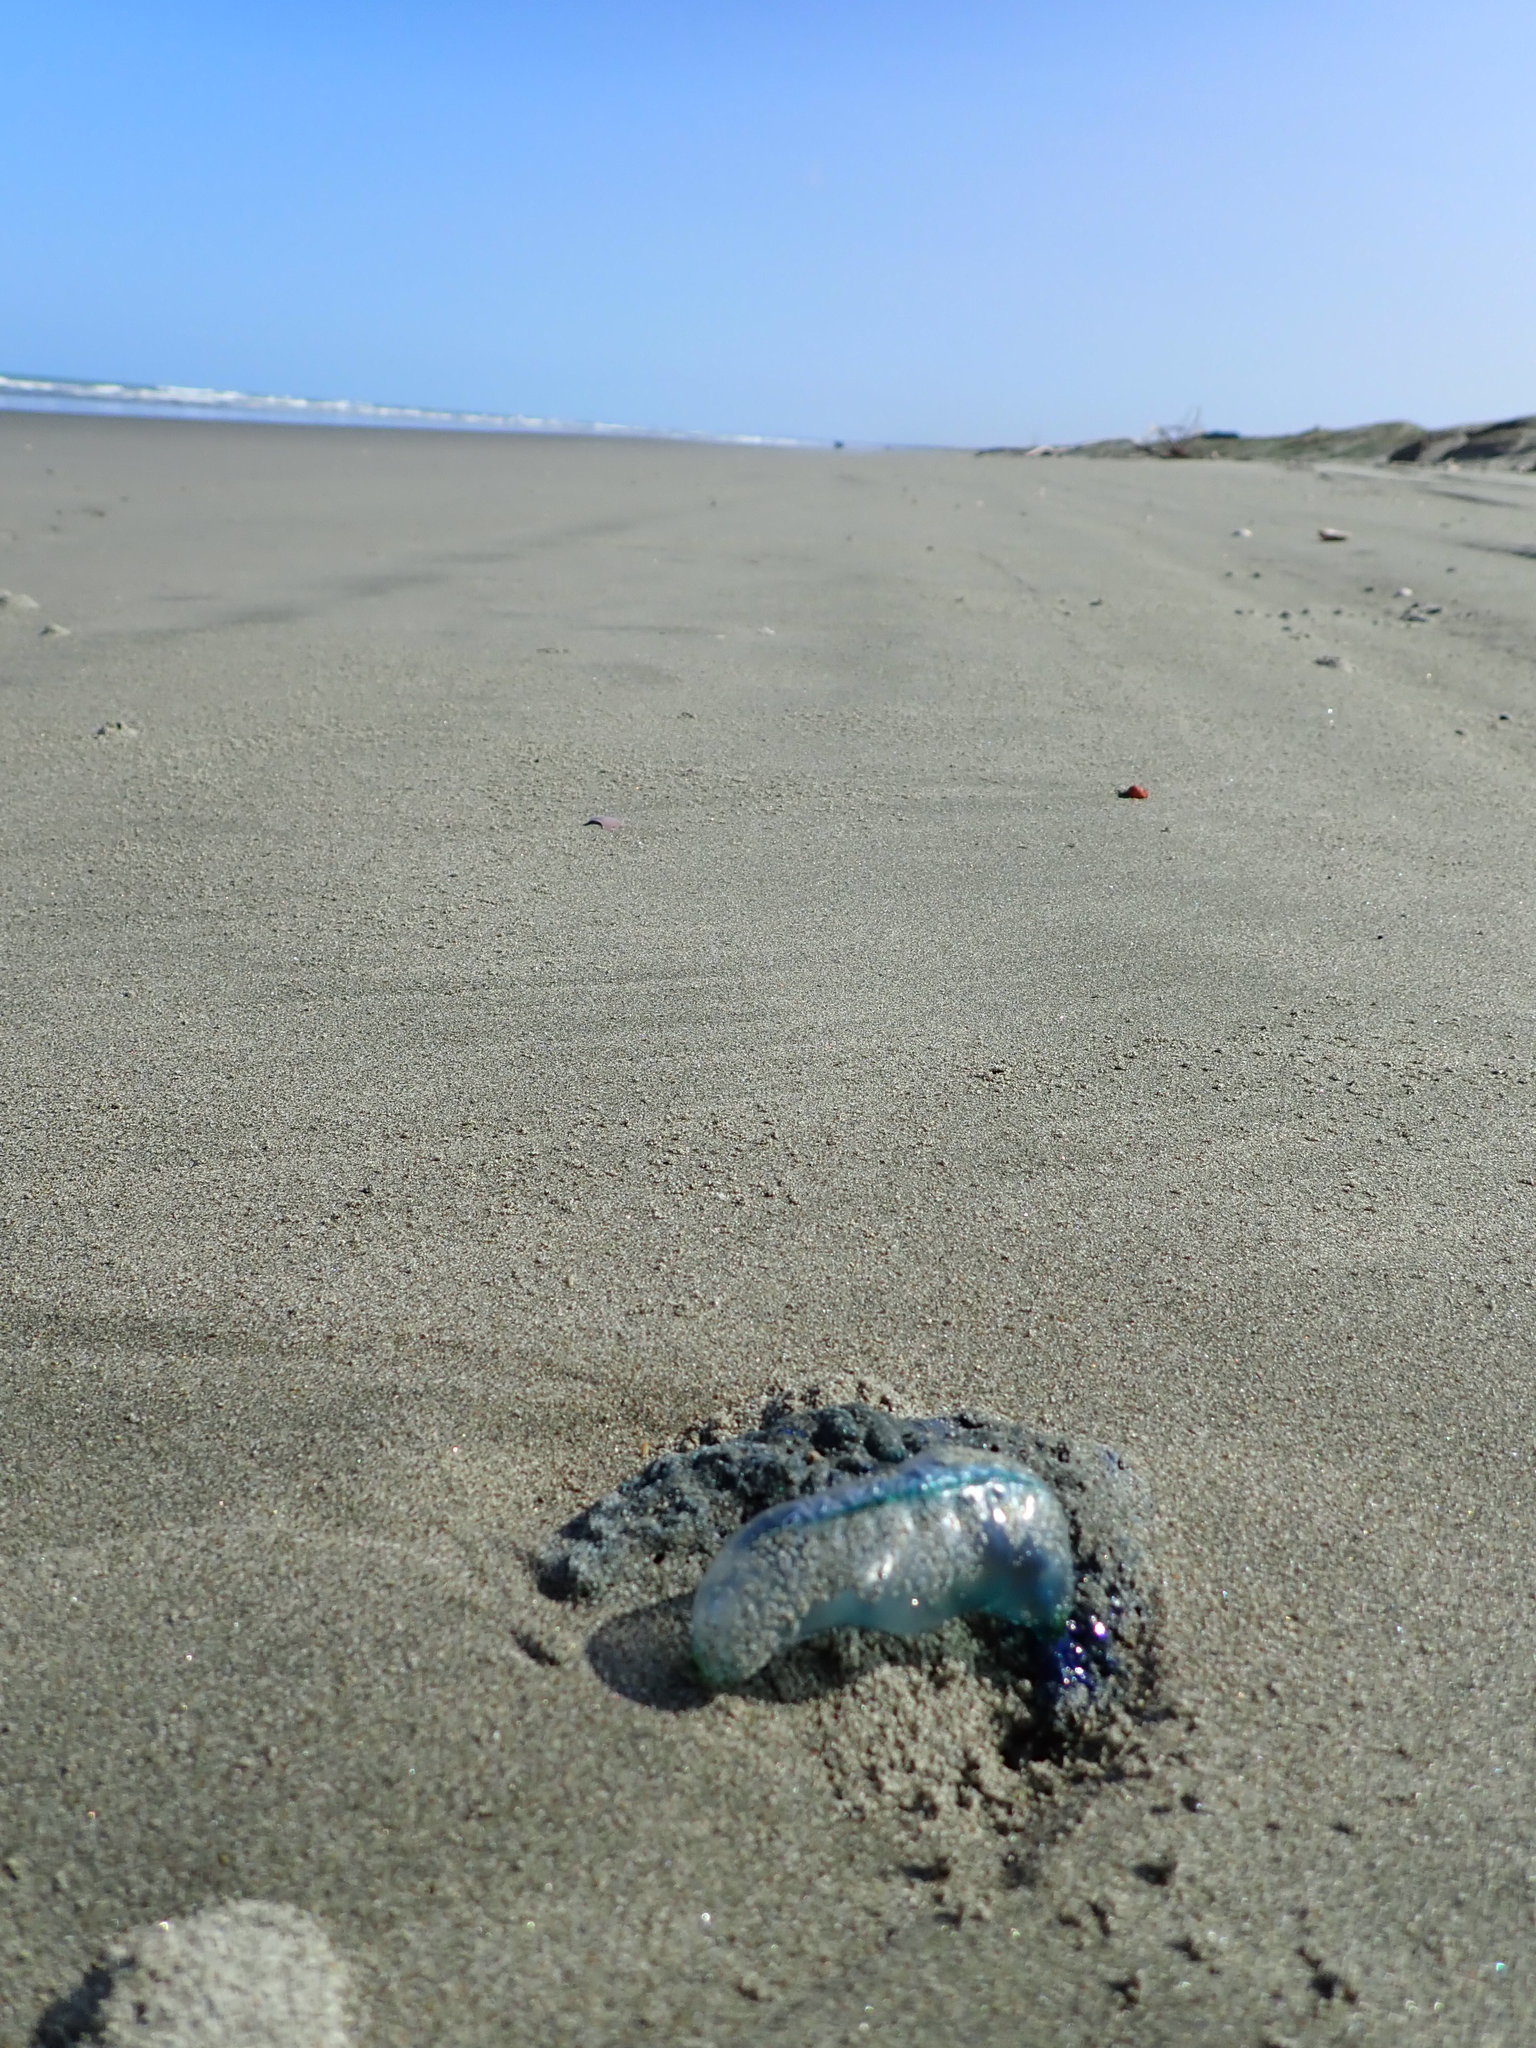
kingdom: Animalia
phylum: Cnidaria
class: Hydrozoa
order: Siphonophorae
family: Physaliidae
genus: Physalia
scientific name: Physalia physalis
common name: Portuguese man-of-war
